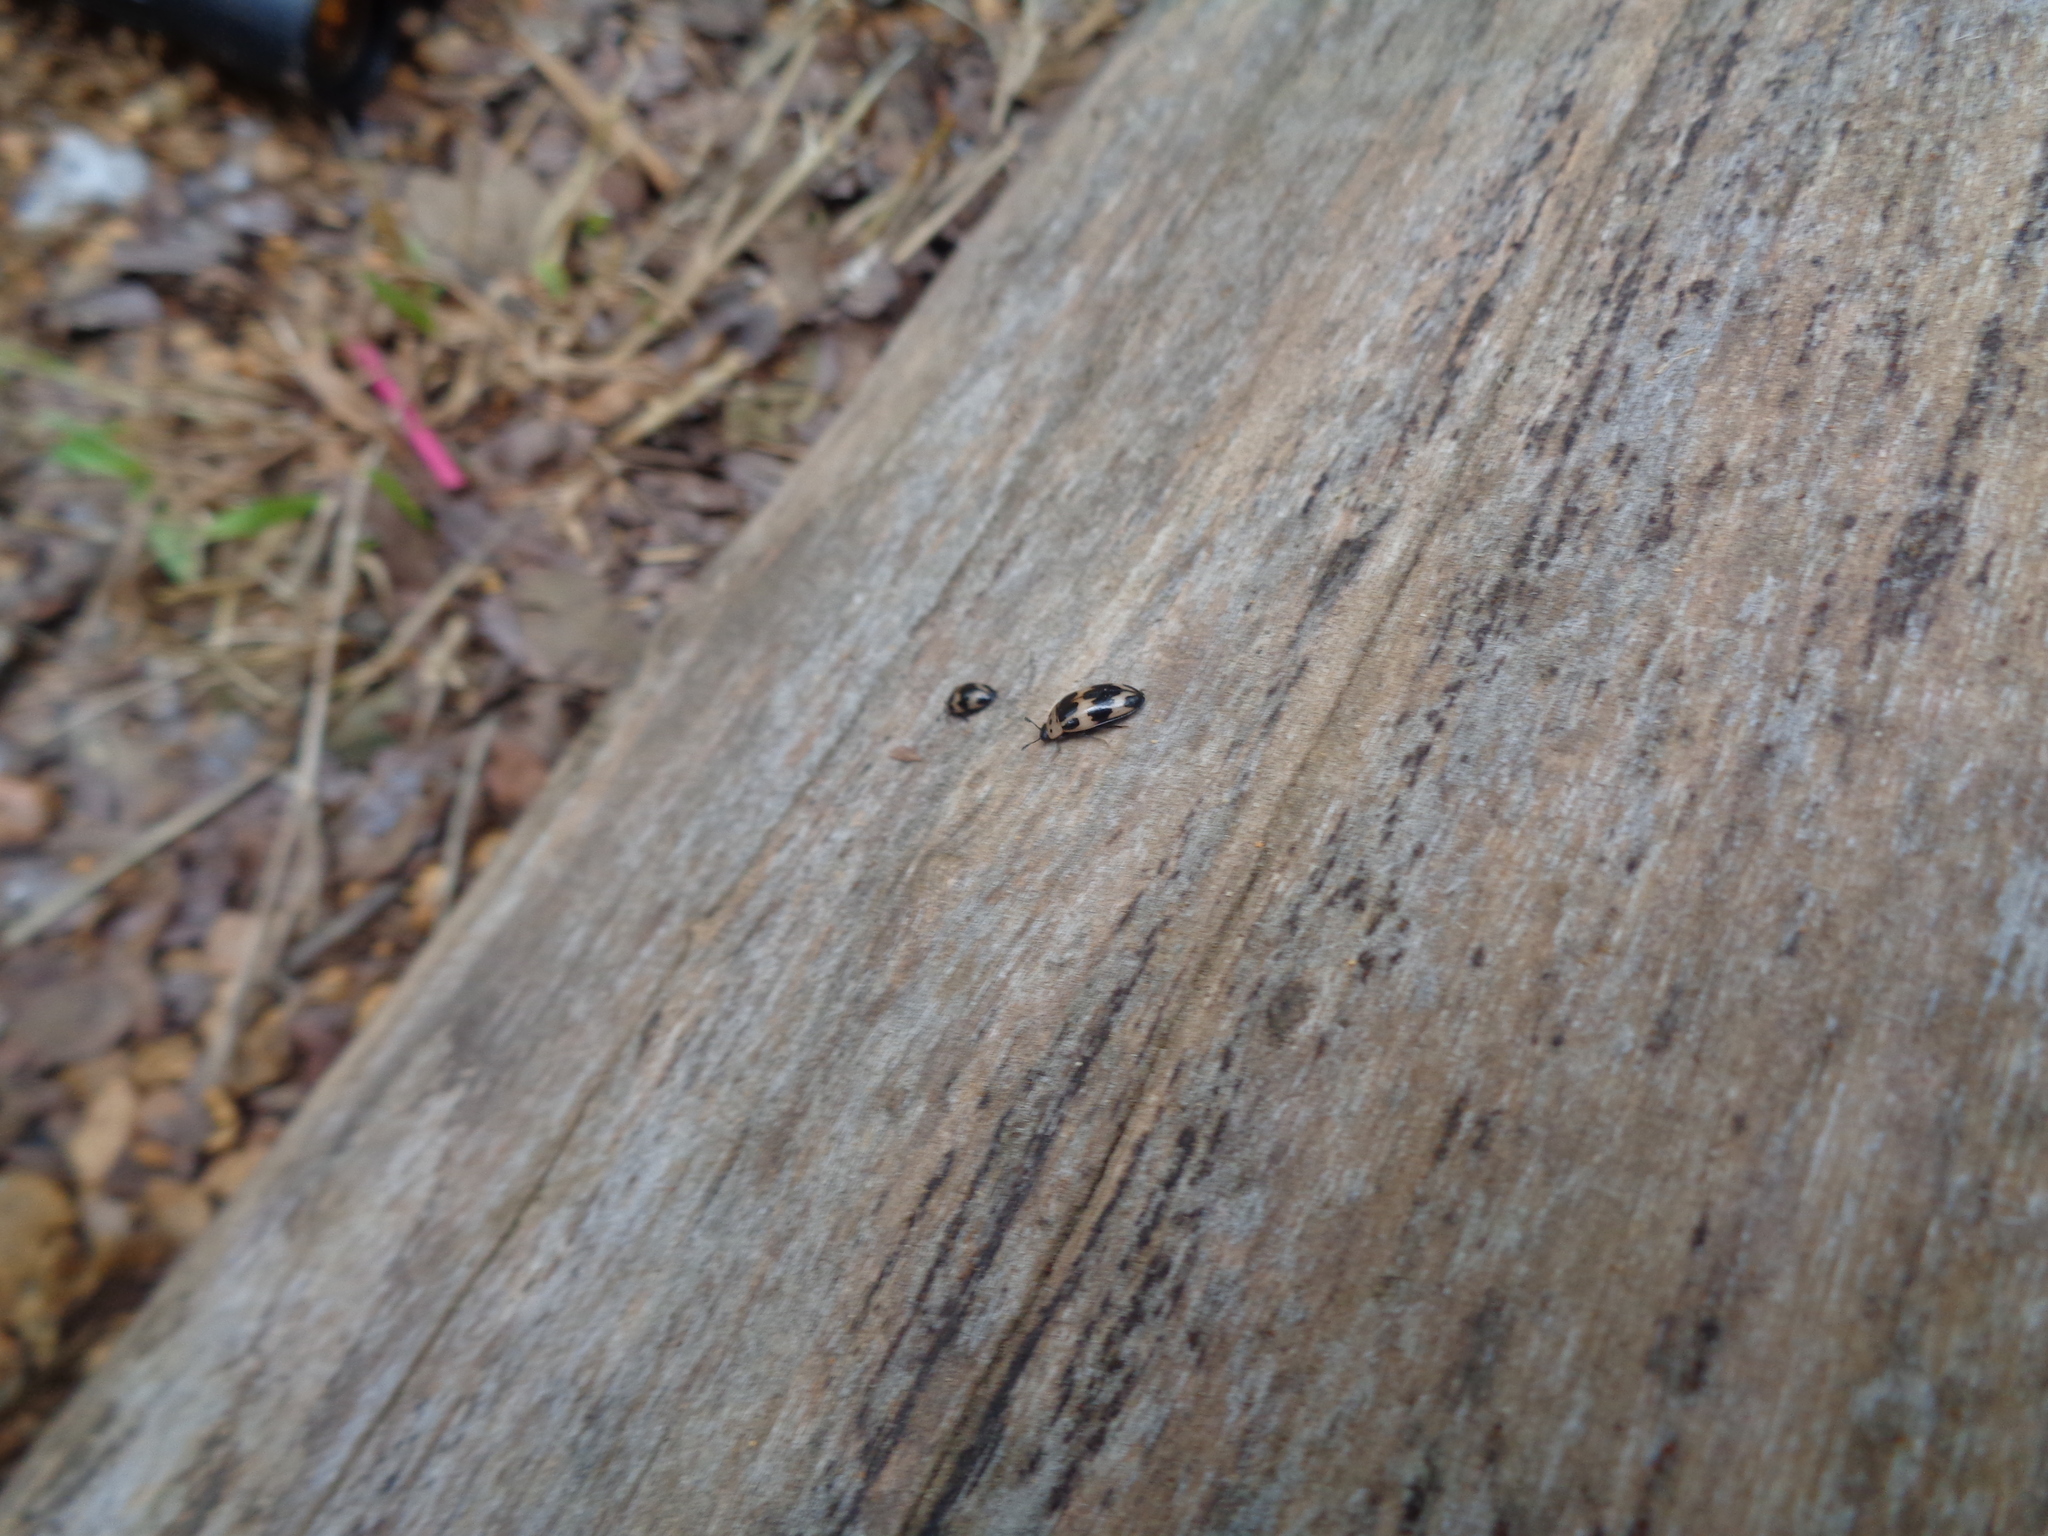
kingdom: Animalia
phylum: Arthropoda
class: Insecta
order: Coleoptera
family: Erotylidae
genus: Ischyrus
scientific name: Ischyrus quadripunctatus
